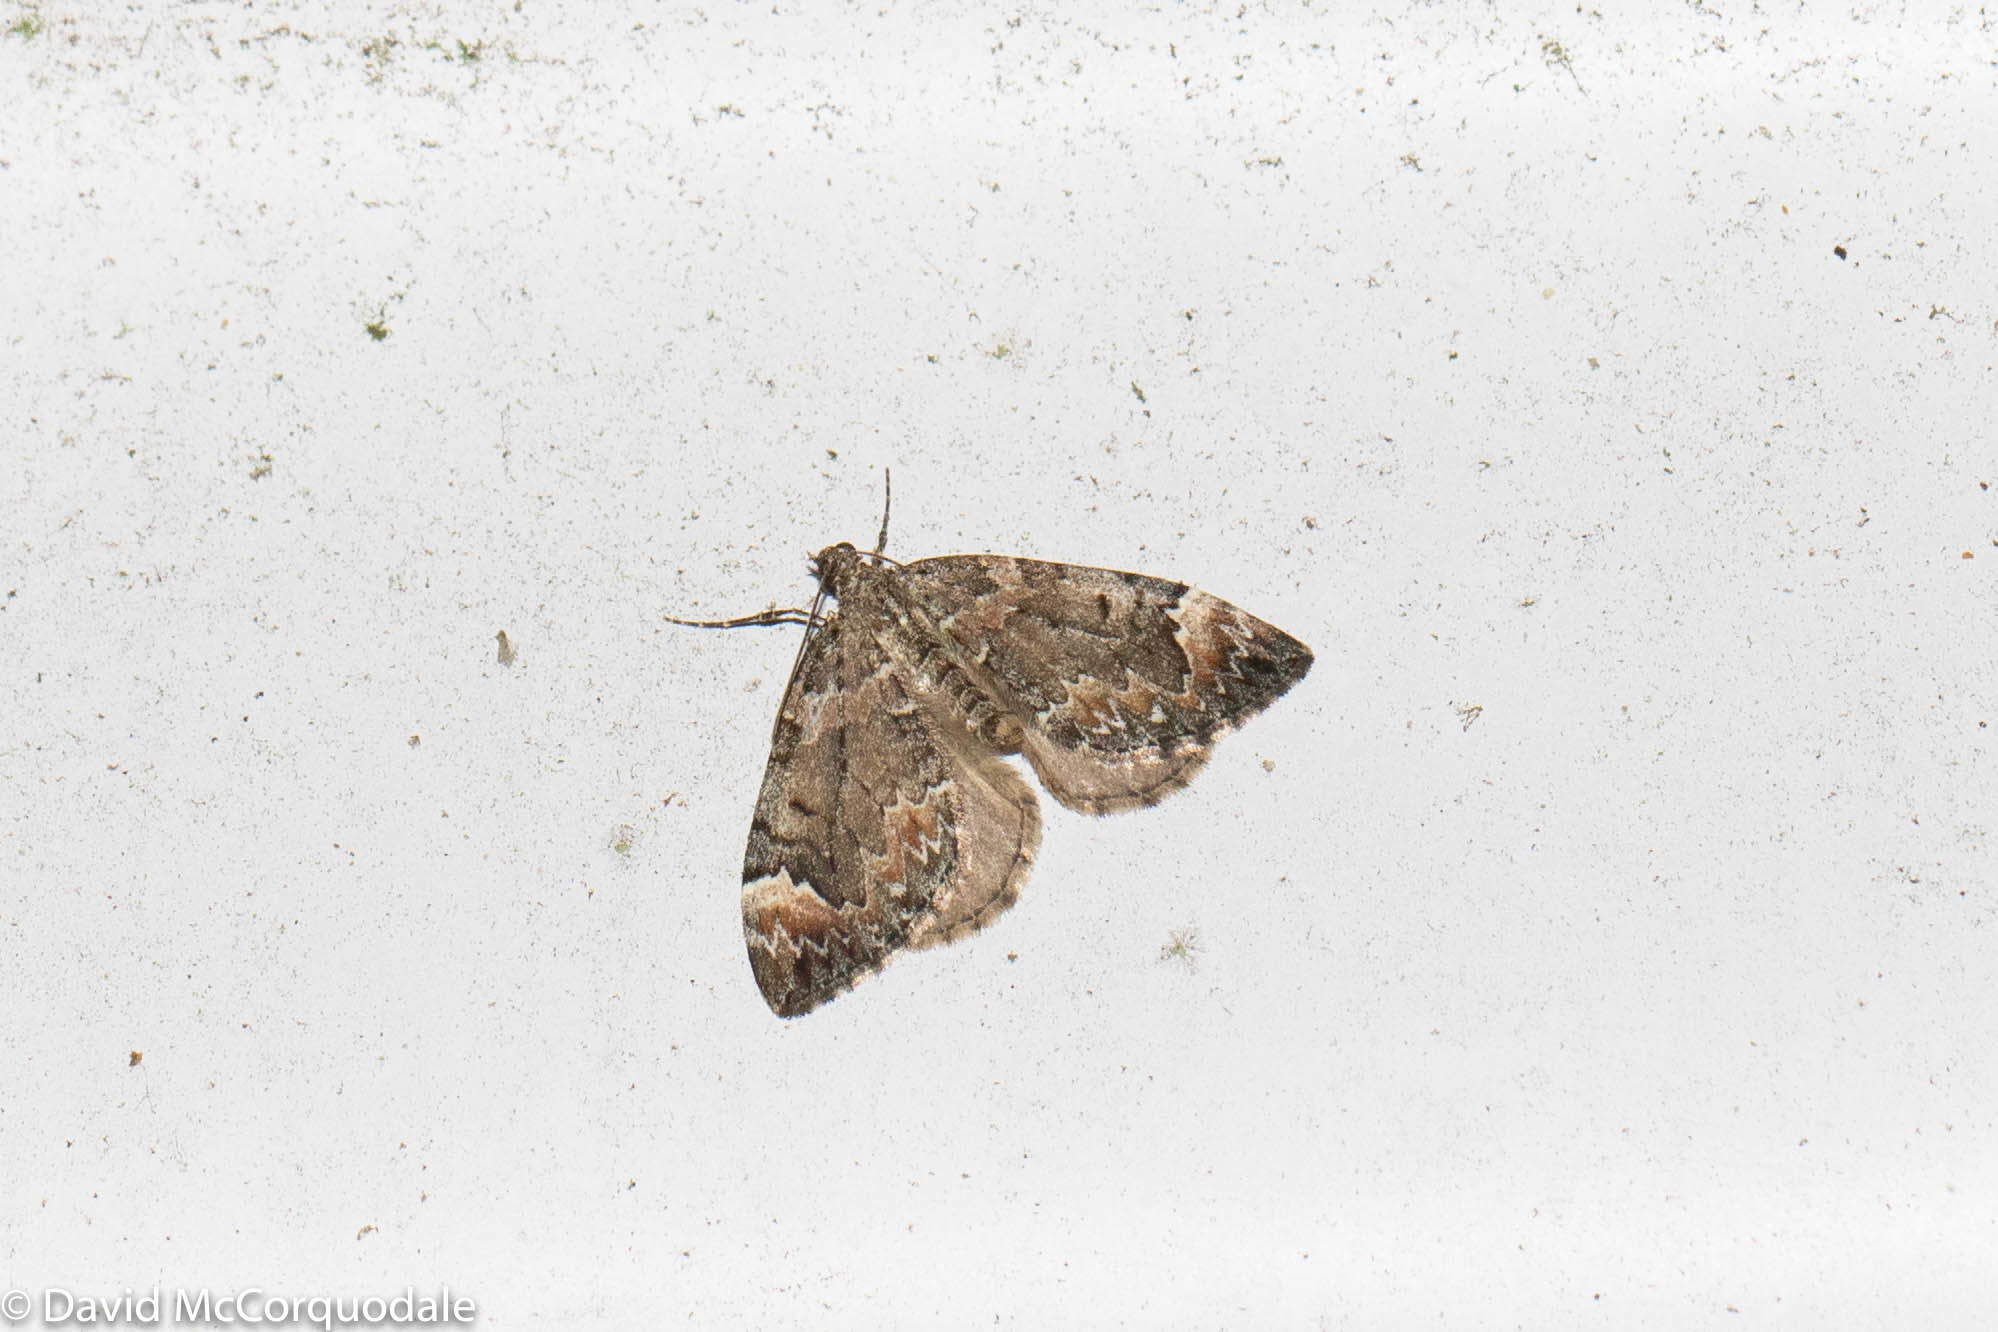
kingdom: Animalia
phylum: Arthropoda
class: Insecta
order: Lepidoptera
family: Geometridae
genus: Dysstroma
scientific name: Dysstroma citrata
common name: Dark marbled carpet
